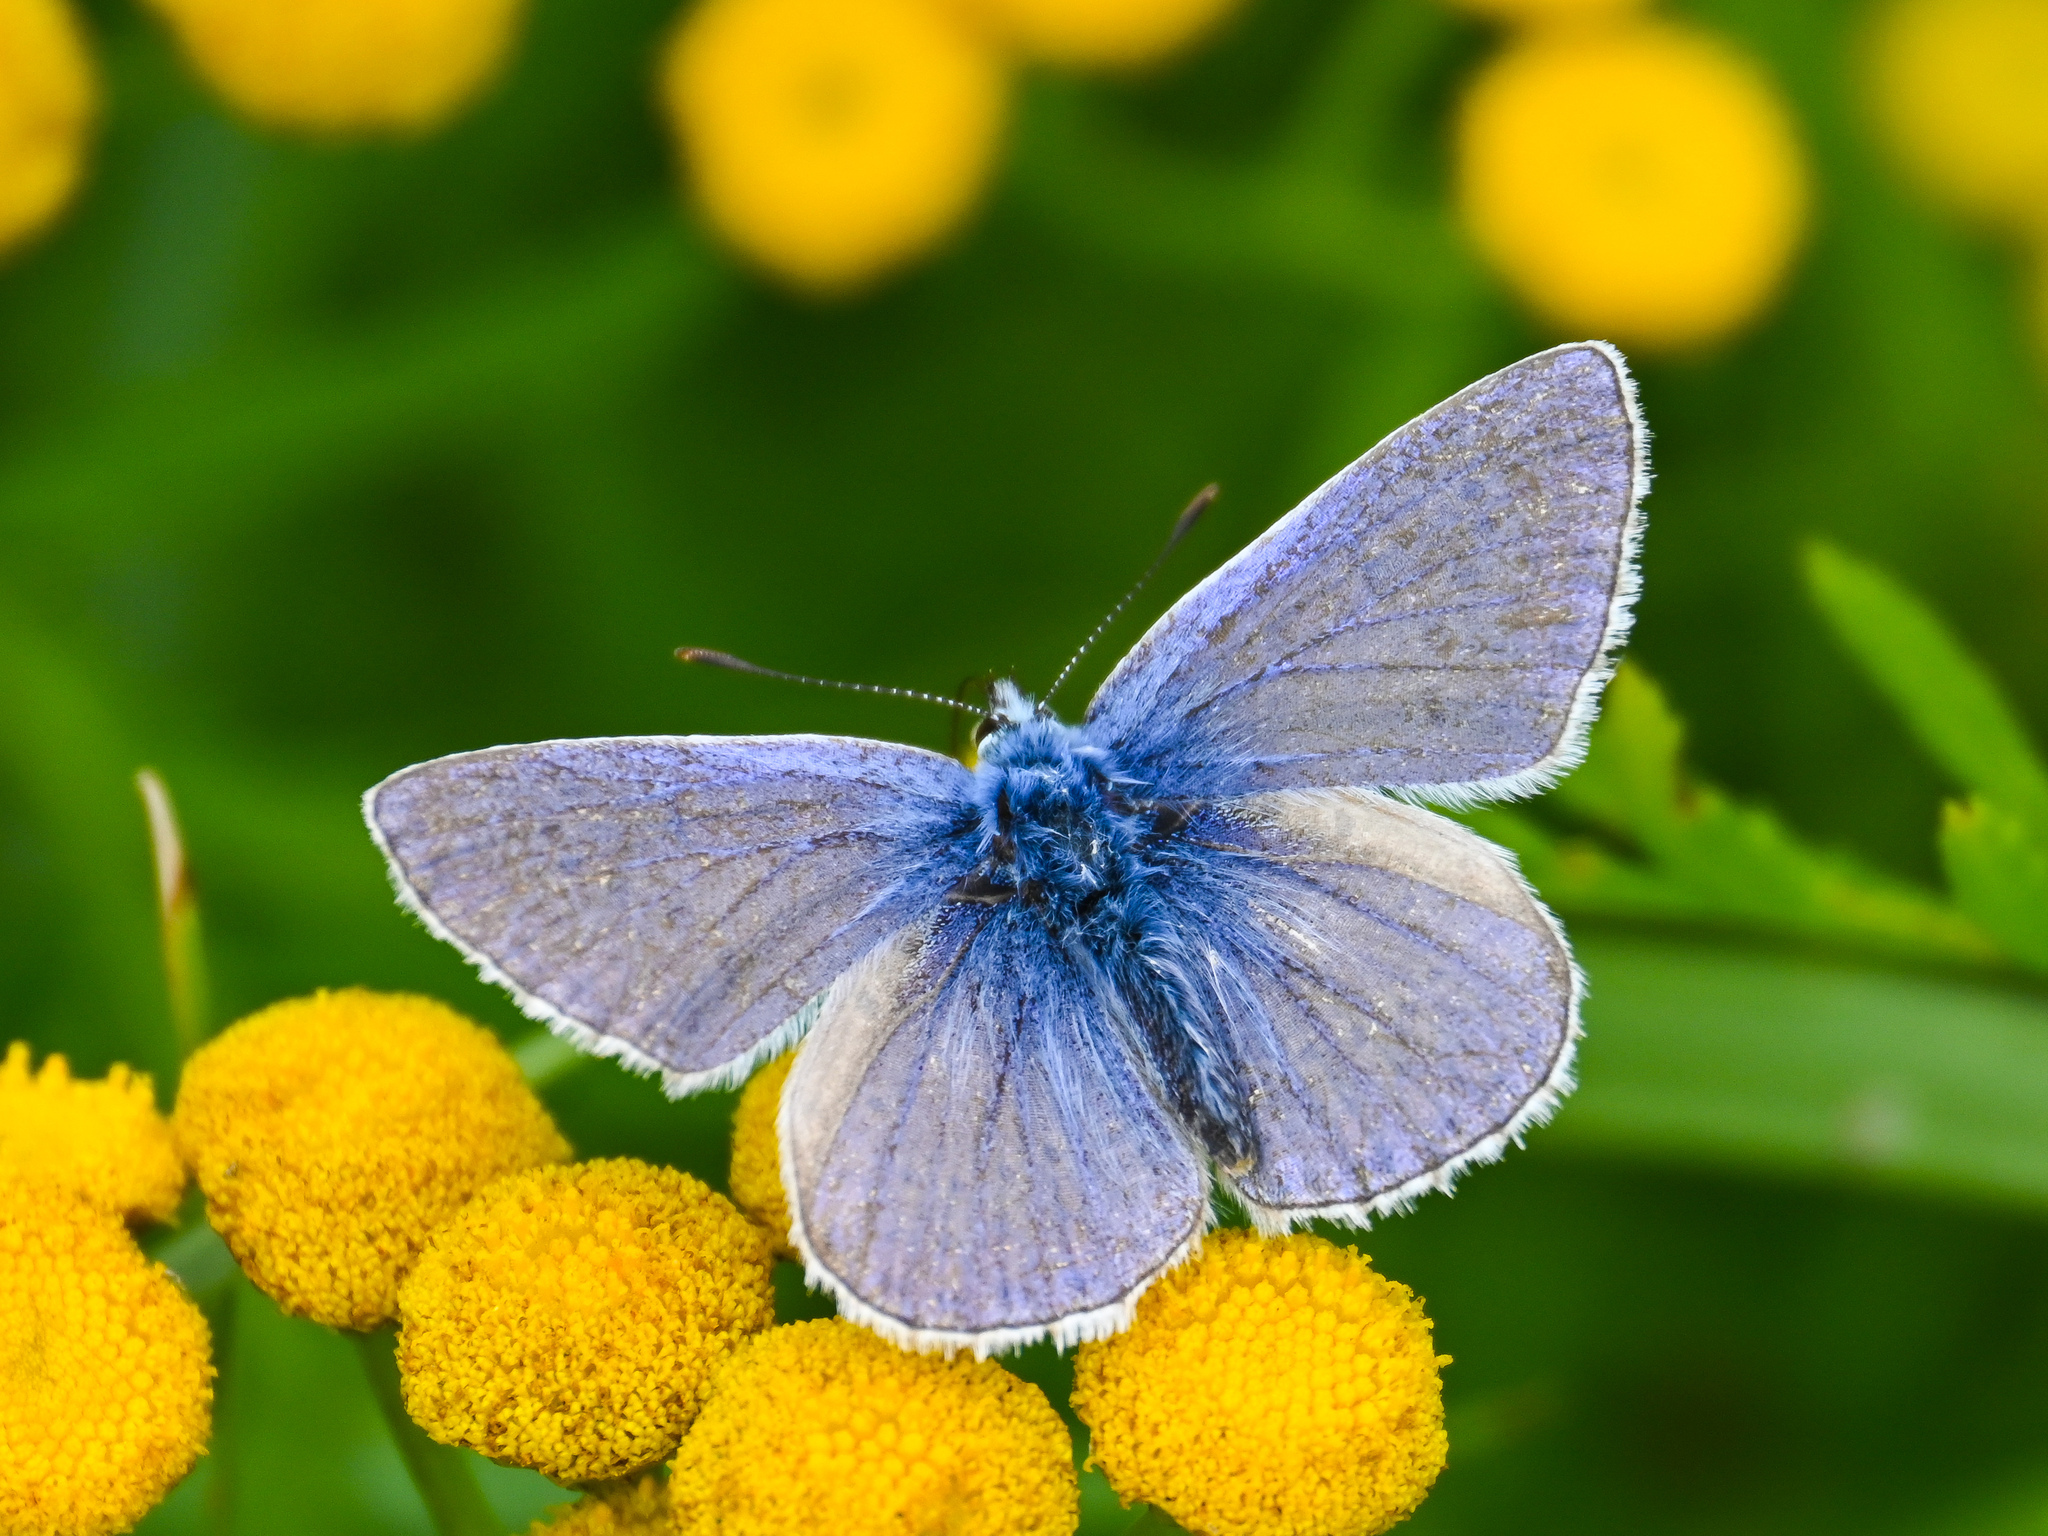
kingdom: Animalia
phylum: Arthropoda
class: Insecta
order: Lepidoptera
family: Lycaenidae
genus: Polyommatus
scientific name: Polyommatus icarus
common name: Common blue
